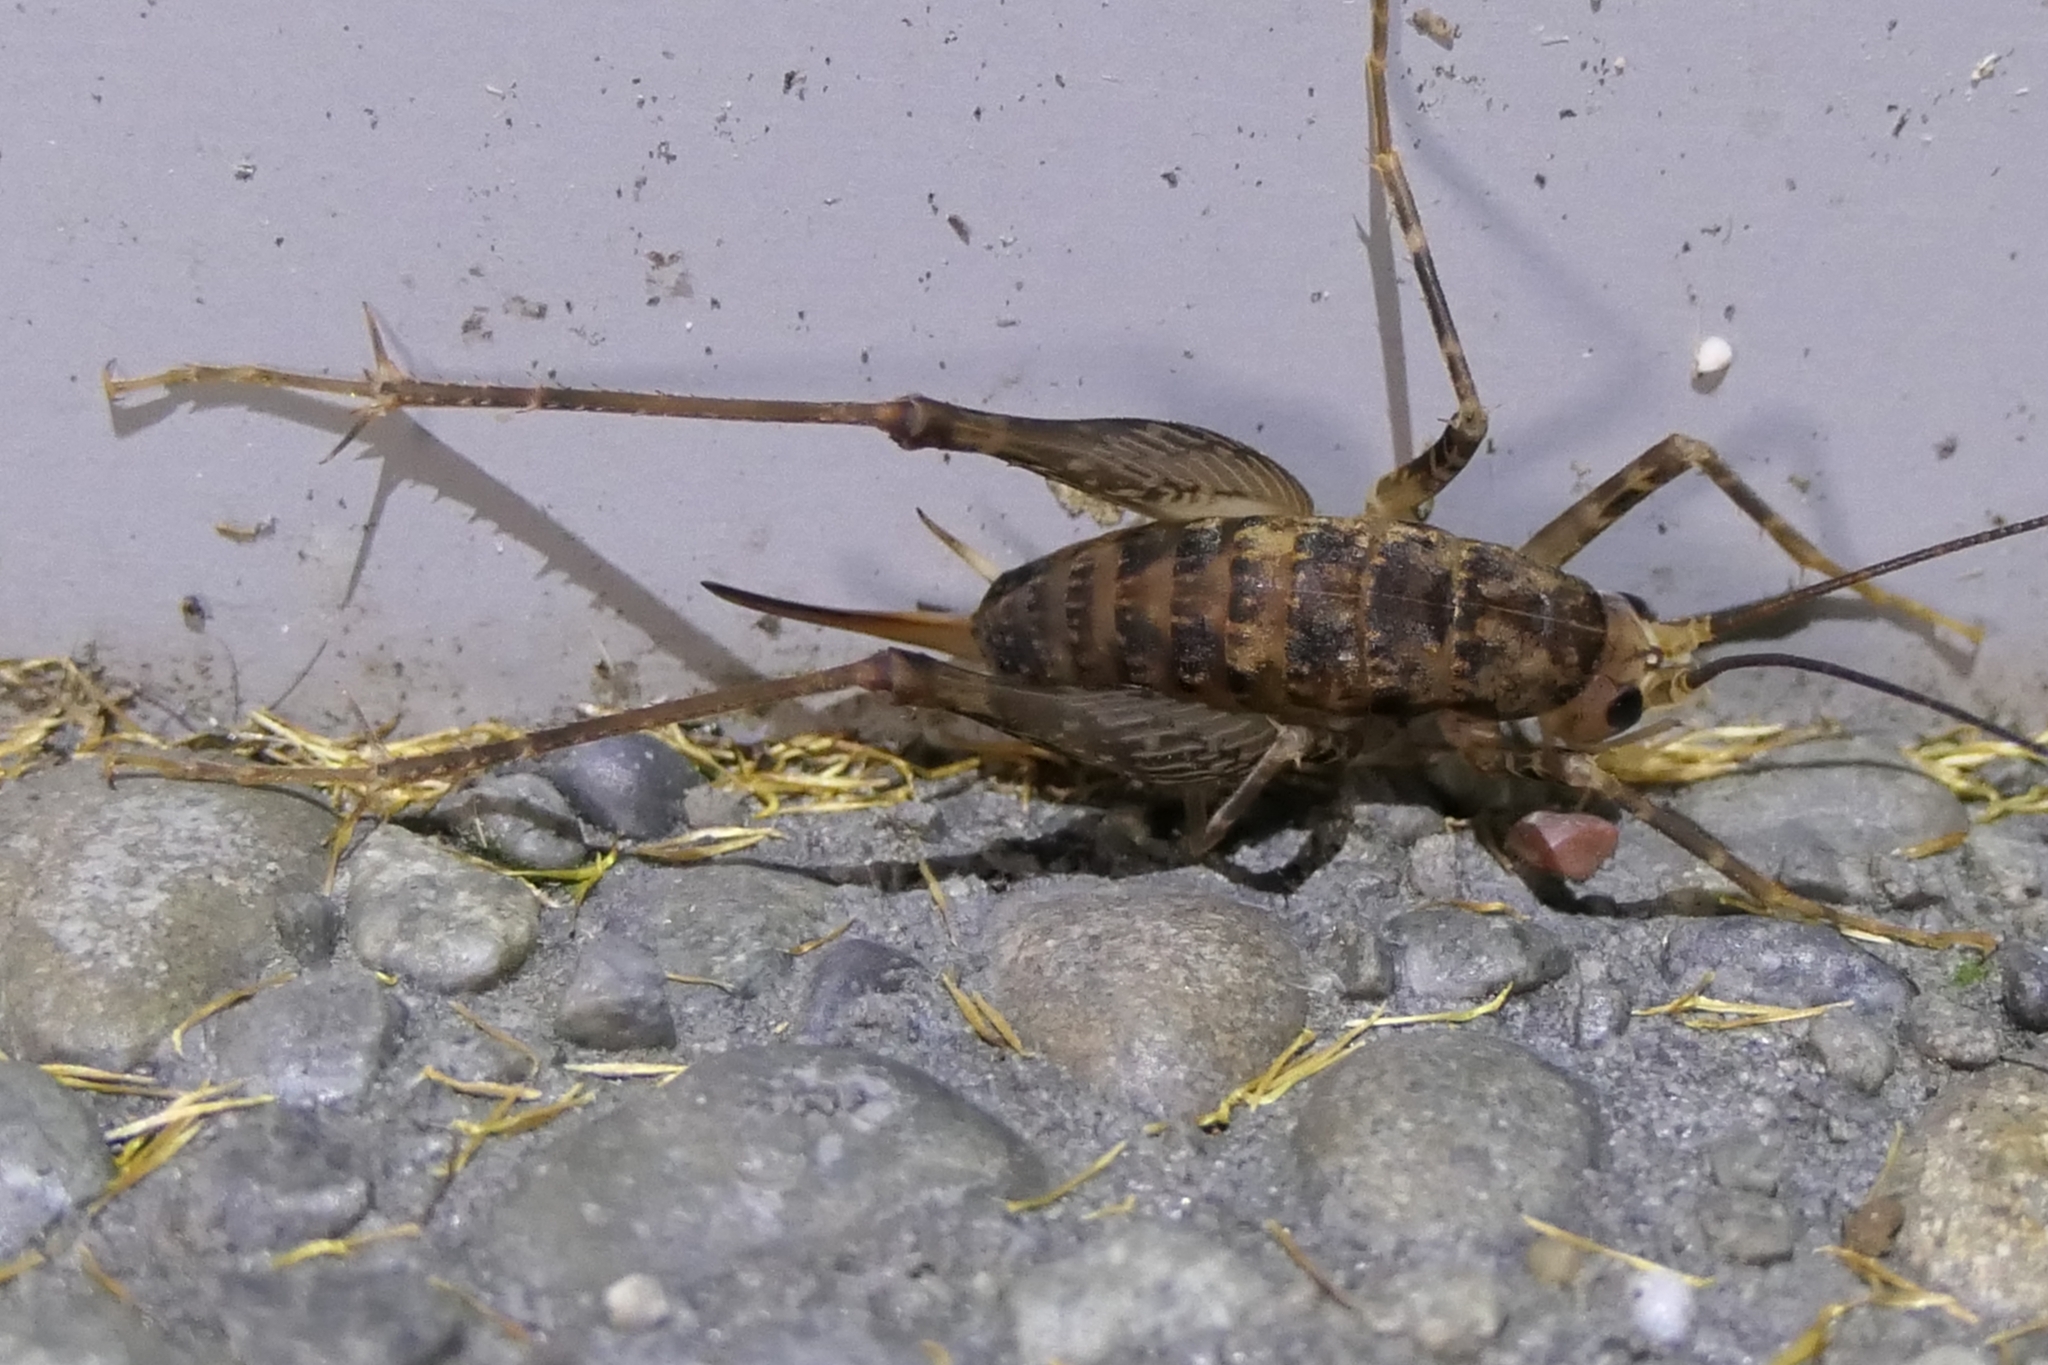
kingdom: Animalia
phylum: Arthropoda
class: Insecta
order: Orthoptera
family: Rhaphidophoridae
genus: Pleioplectron
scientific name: Pleioplectron simplex
